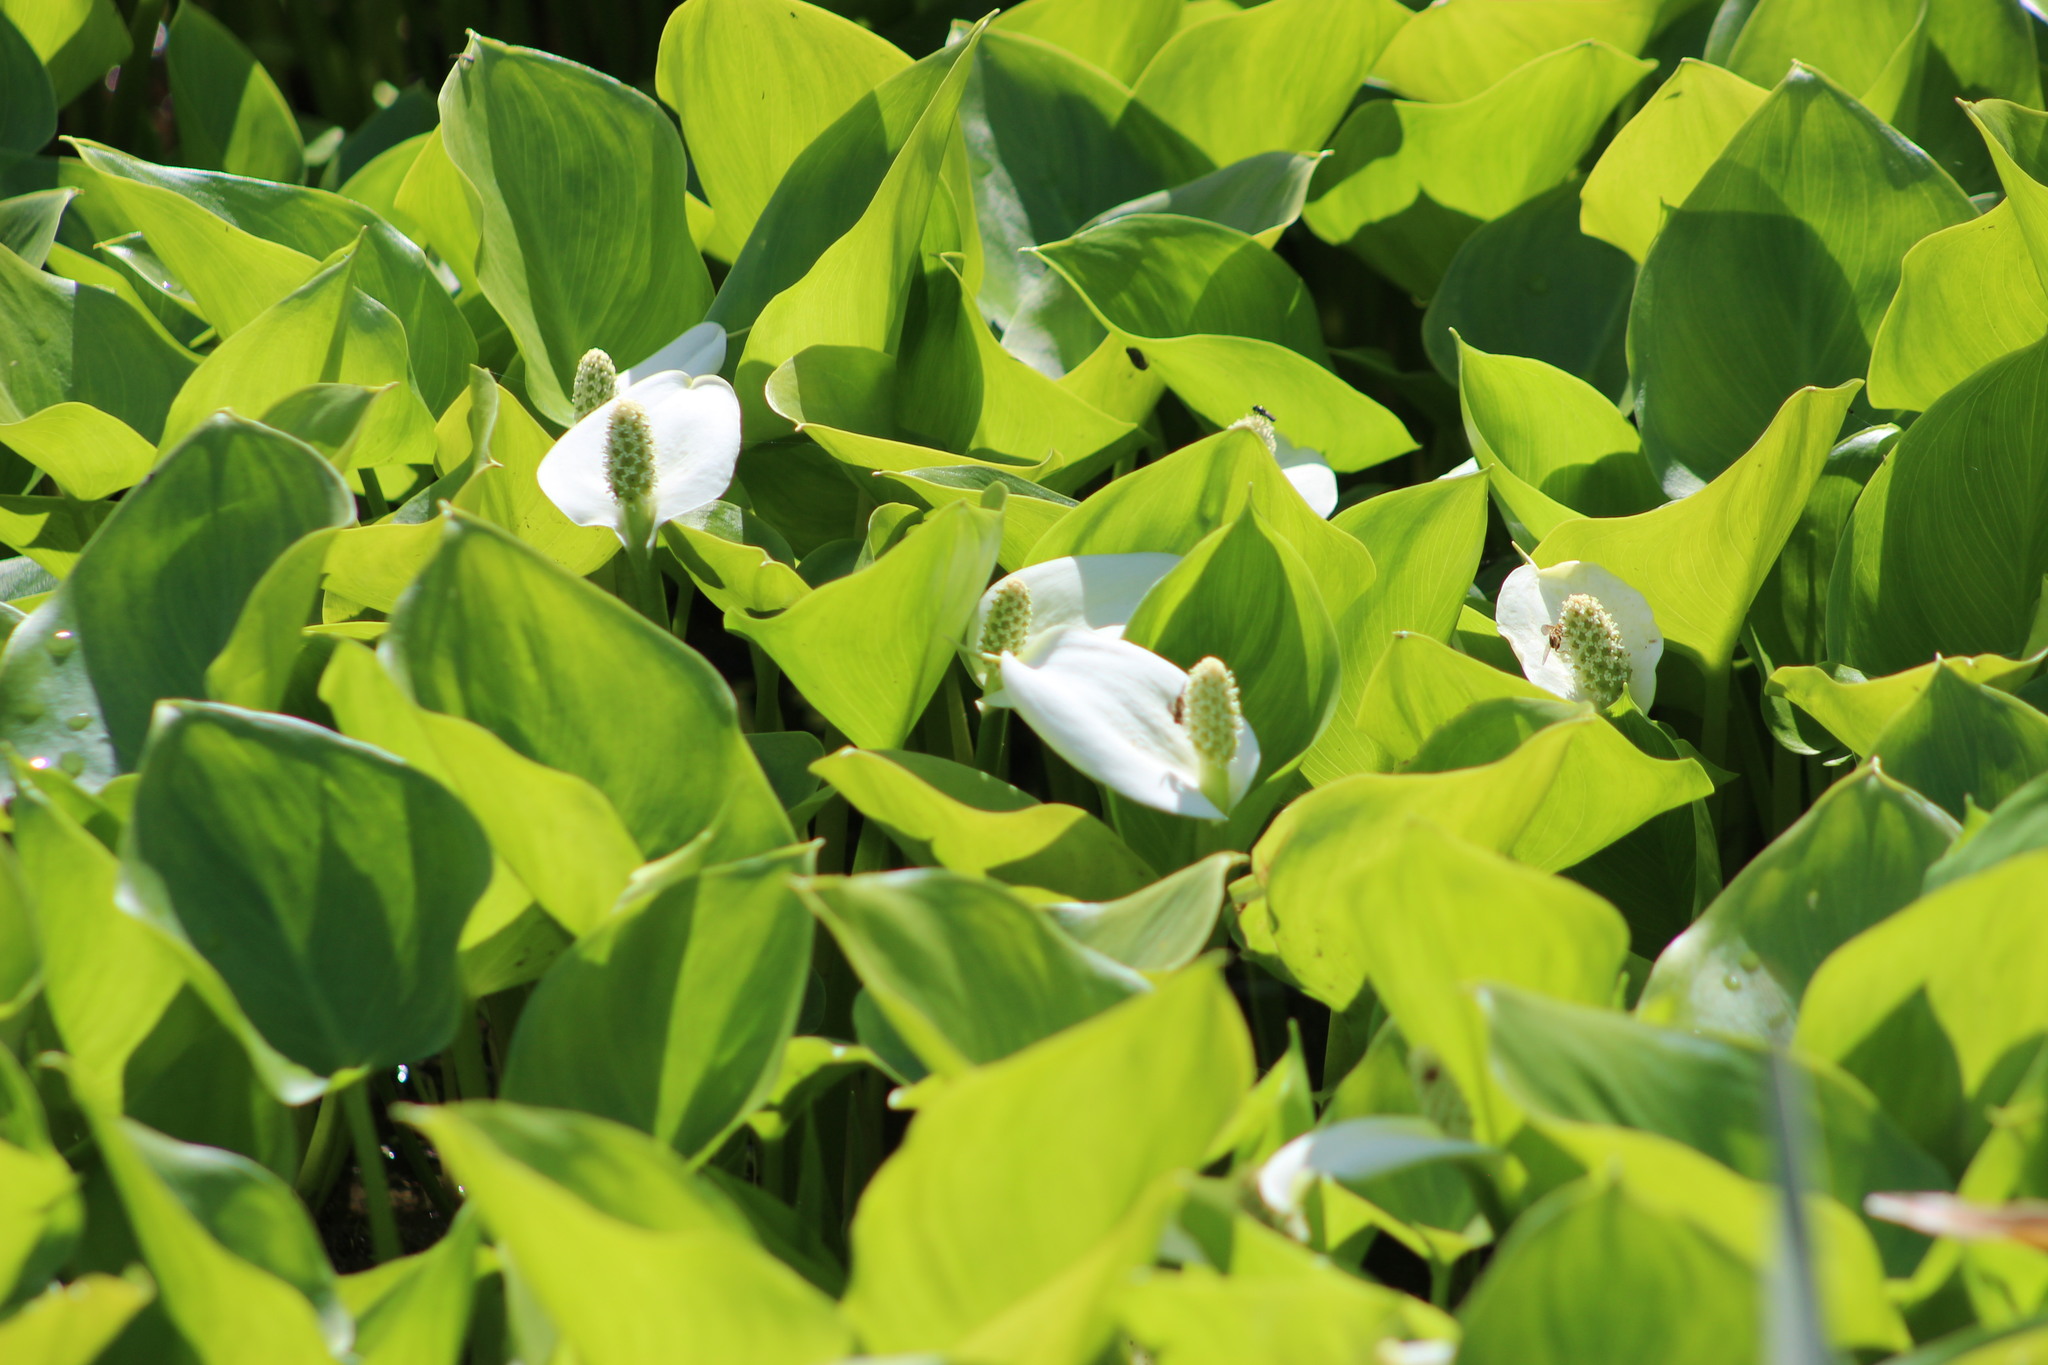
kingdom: Plantae
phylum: Tracheophyta
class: Liliopsida
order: Alismatales
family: Araceae
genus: Calla
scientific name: Calla palustris
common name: Bog arum
